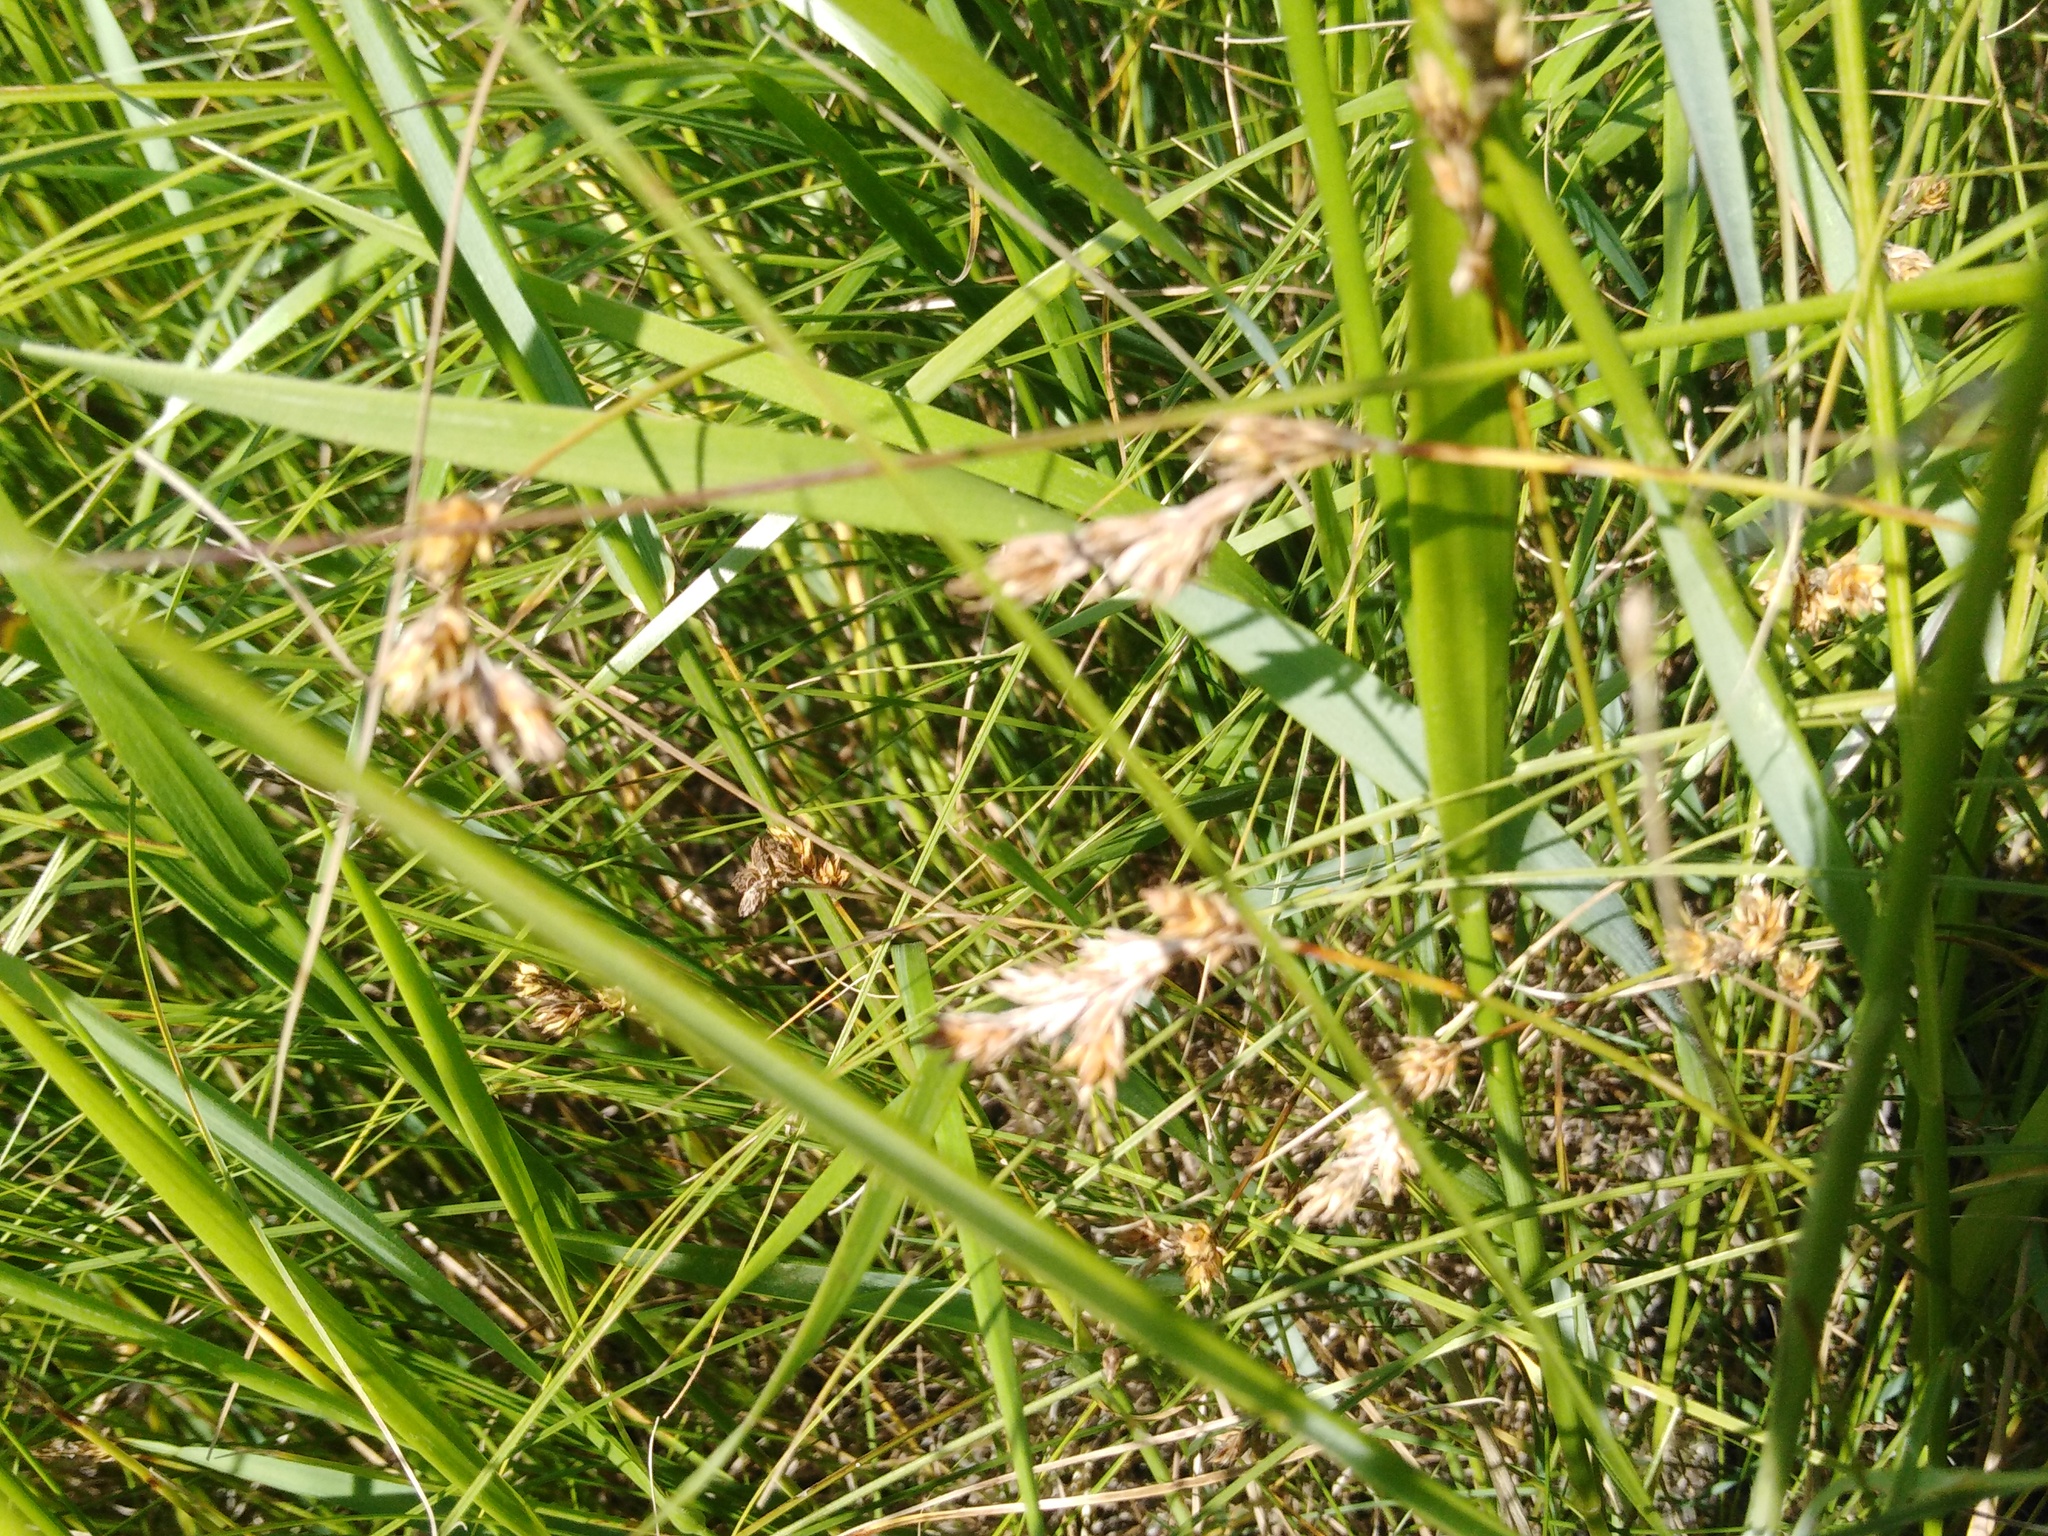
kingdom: Plantae
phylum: Tracheophyta
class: Liliopsida
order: Poales
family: Cyperaceae
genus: Carex
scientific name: Carex praecox
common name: Early sedge
